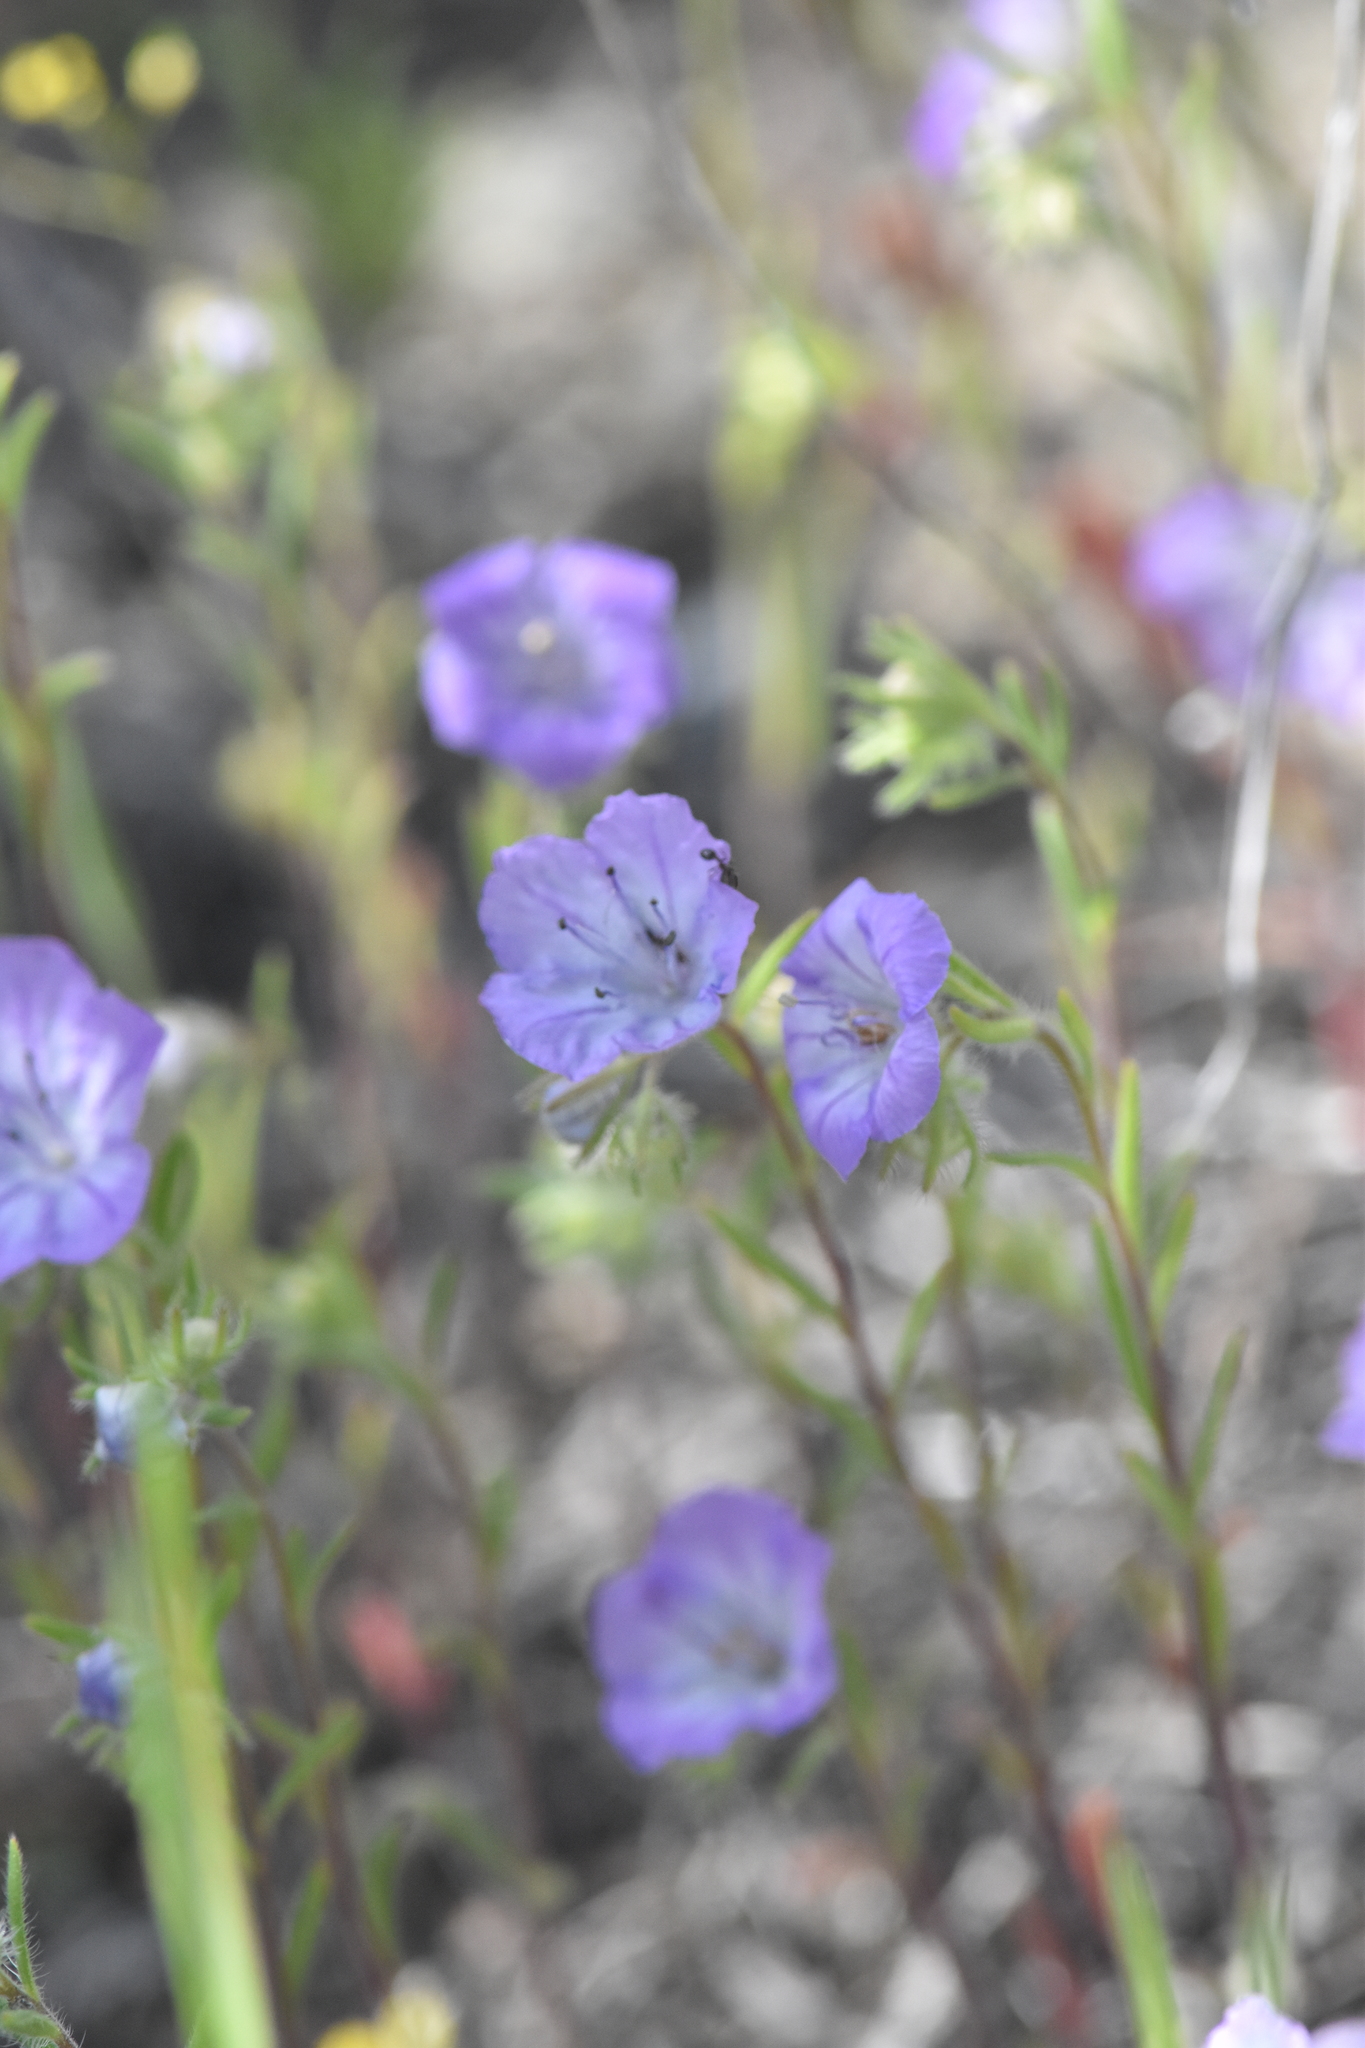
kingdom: Plantae
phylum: Tracheophyta
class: Magnoliopsida
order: Boraginales
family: Hydrophyllaceae
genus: Phacelia
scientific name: Phacelia linearis
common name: Linear-leaved phacelia
